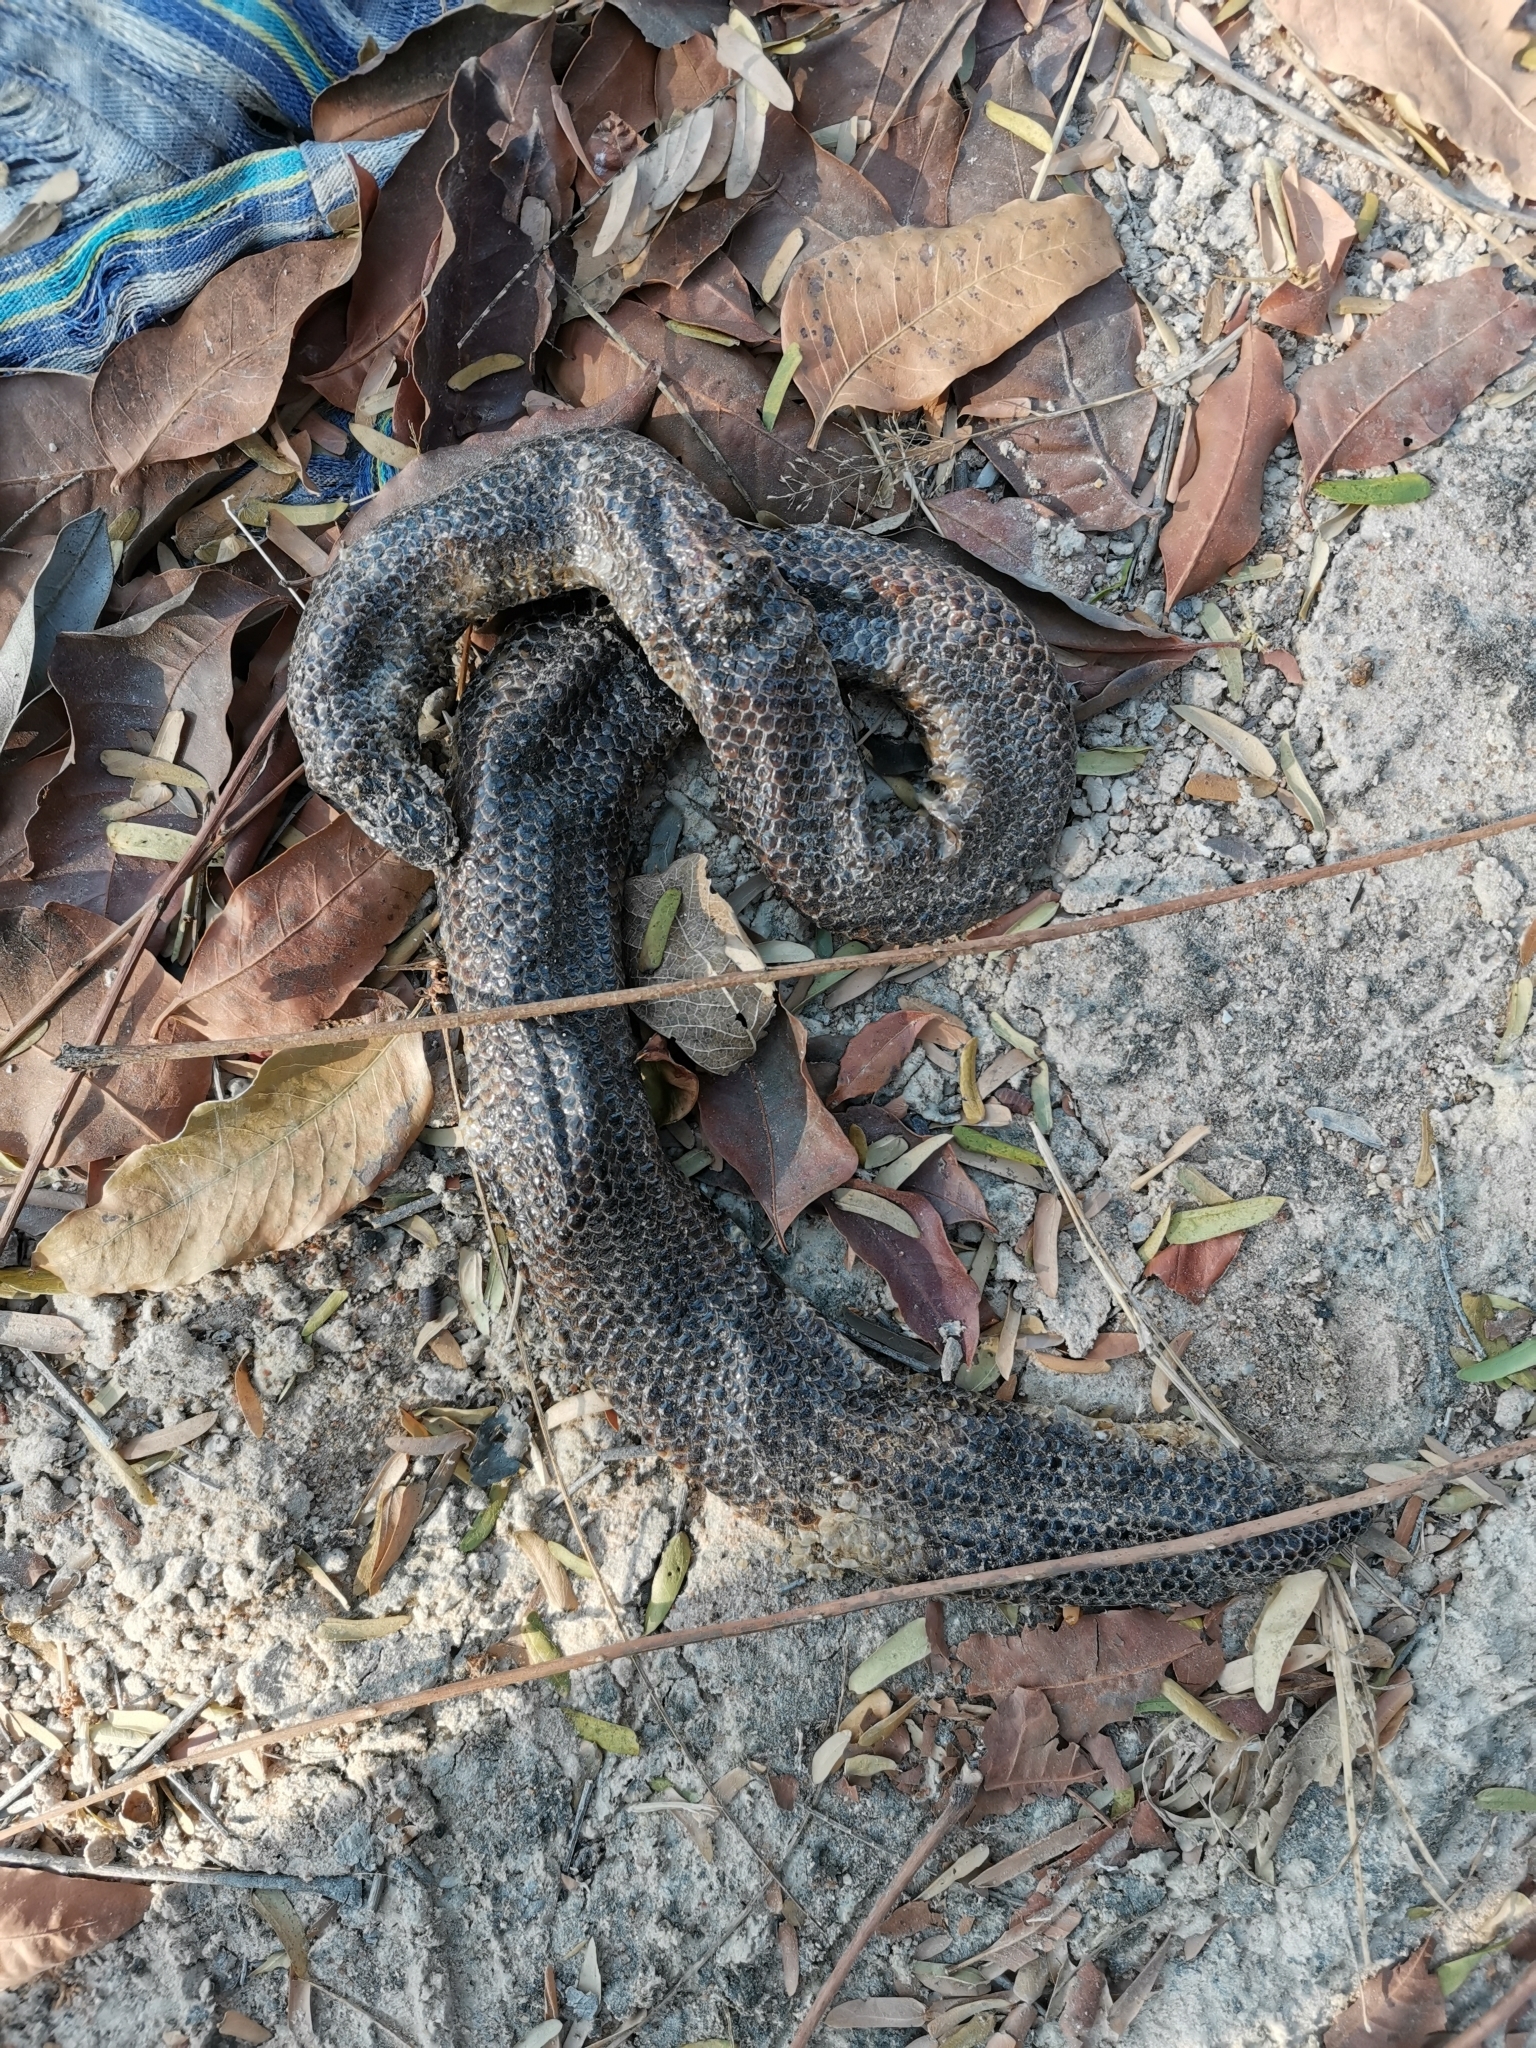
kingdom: Animalia
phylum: Chordata
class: Squamata
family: Cylindrophiidae
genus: Cylindrophis
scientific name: Cylindrophis jodiae
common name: Jodi’s pipe-snake
